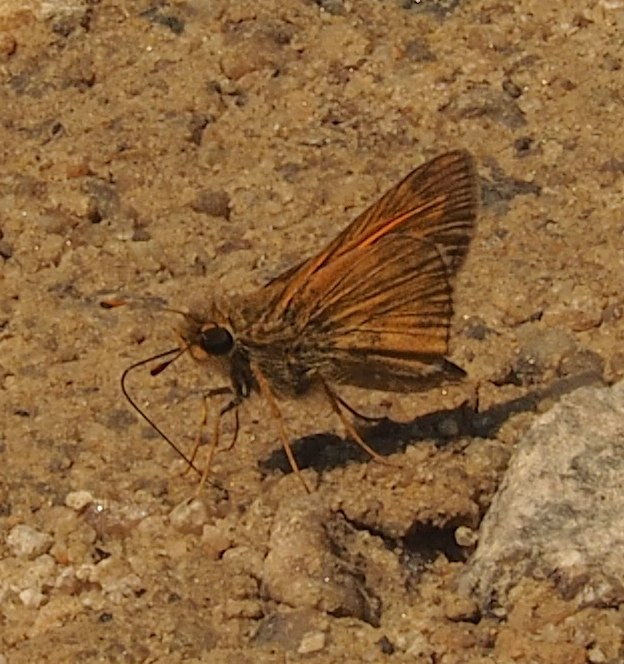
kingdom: Animalia
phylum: Arthropoda
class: Insecta
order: Lepidoptera
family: Hesperiidae
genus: Atalopedes
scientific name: Atalopedes
